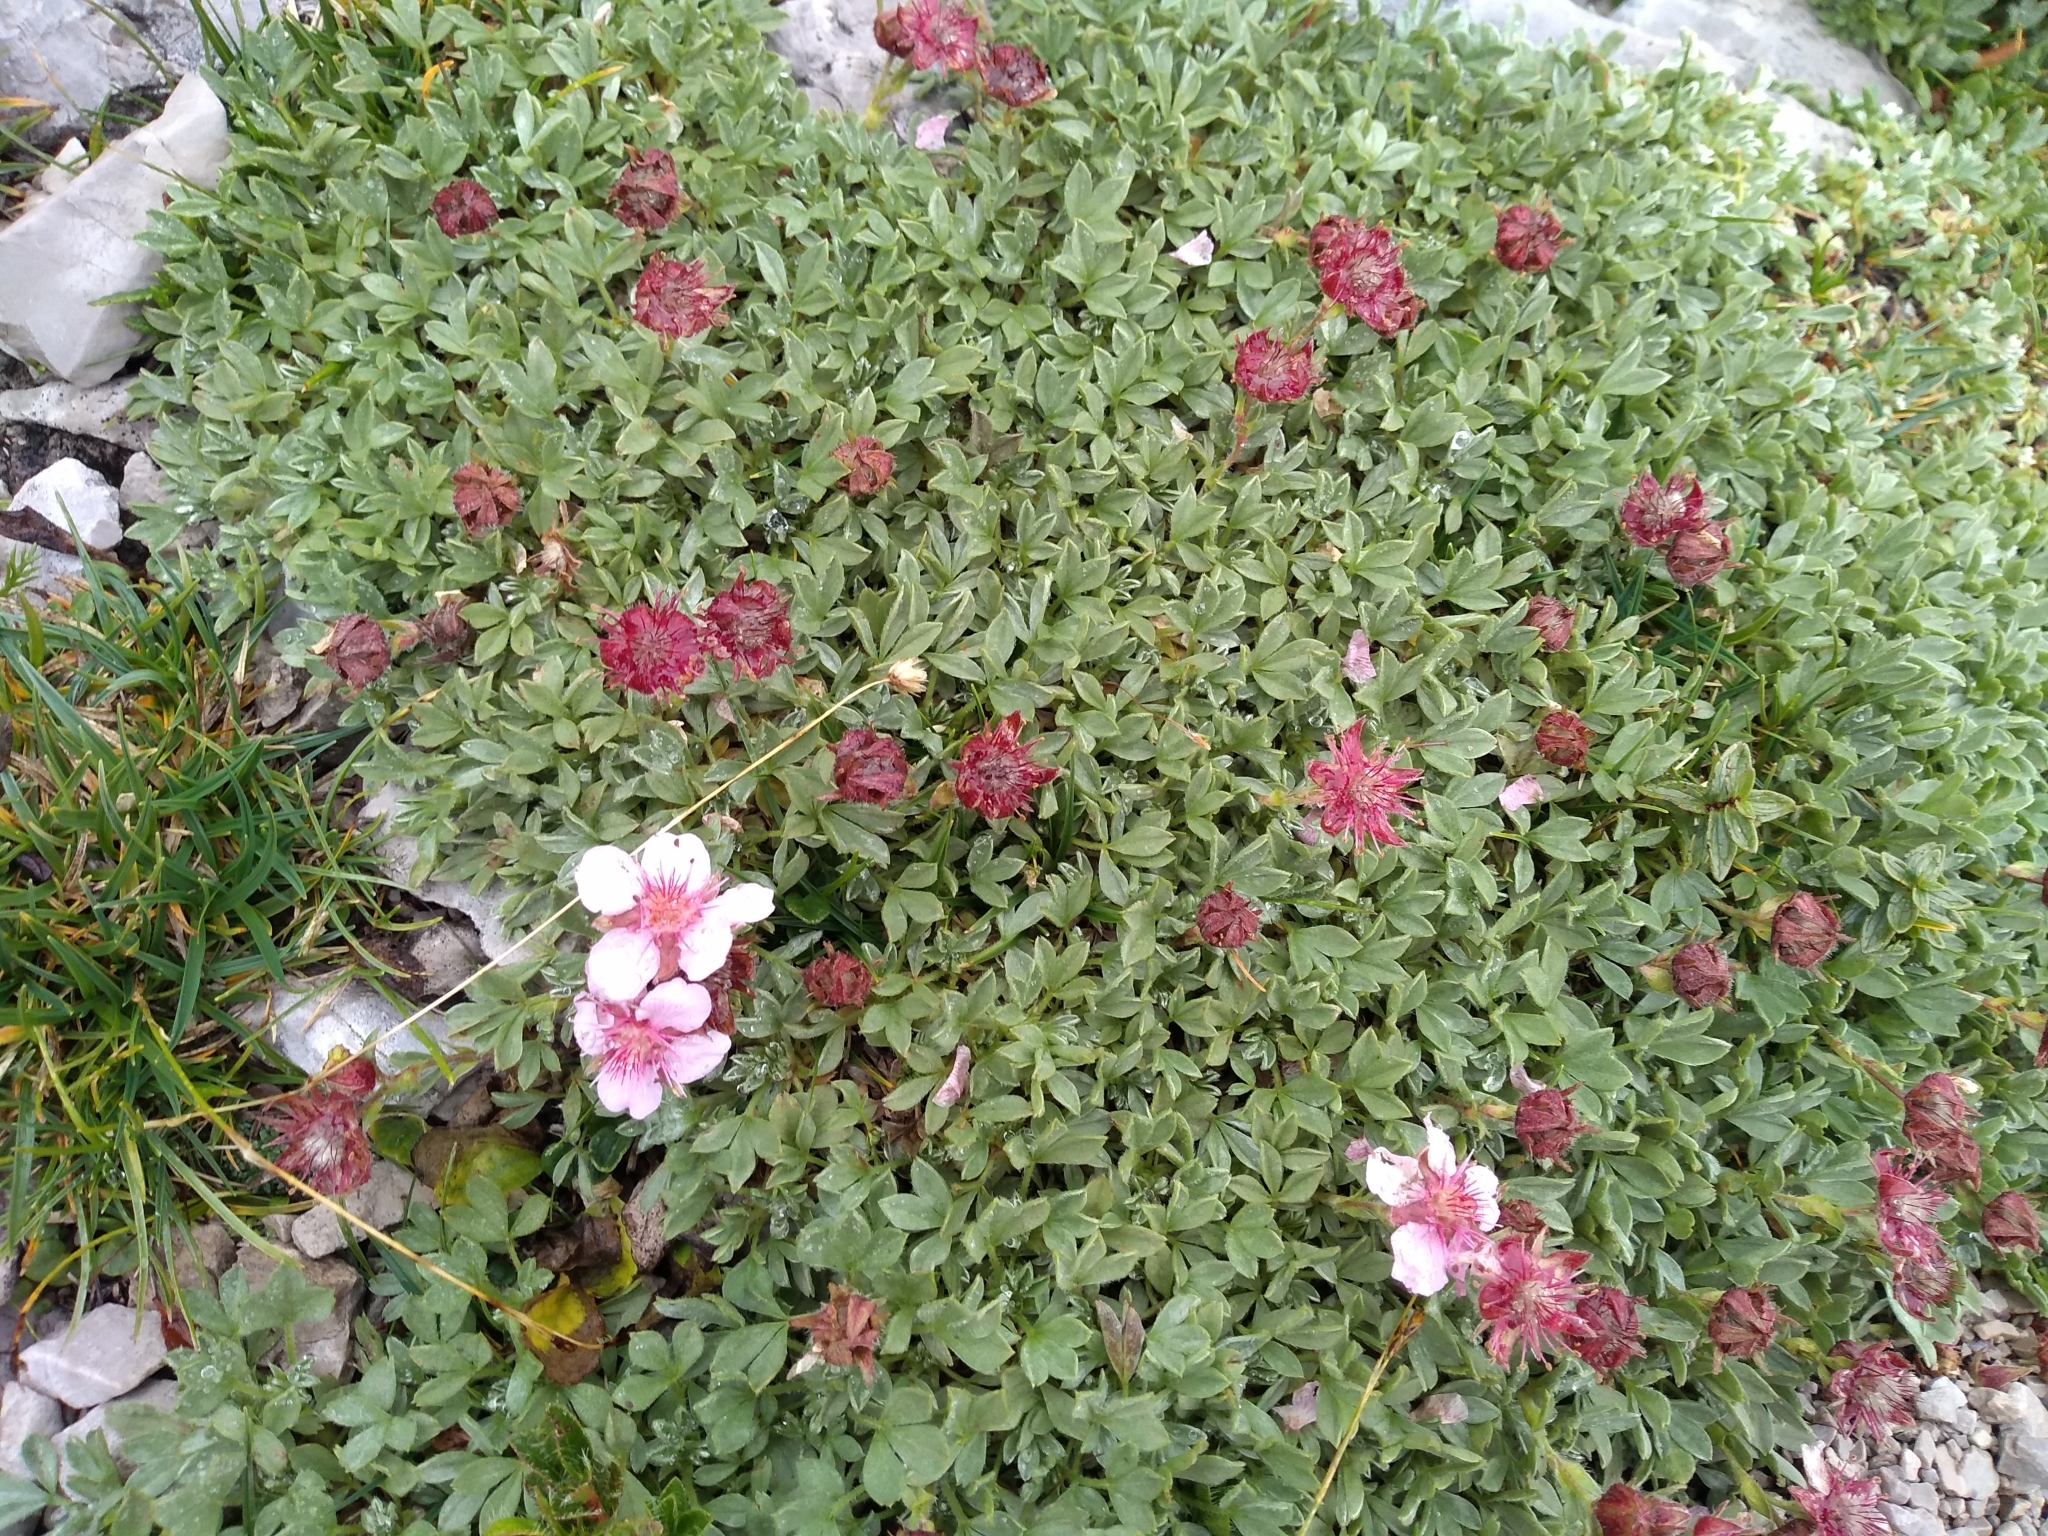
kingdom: Plantae
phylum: Tracheophyta
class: Magnoliopsida
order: Rosales
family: Rosaceae
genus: Potentilla
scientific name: Potentilla nitida
